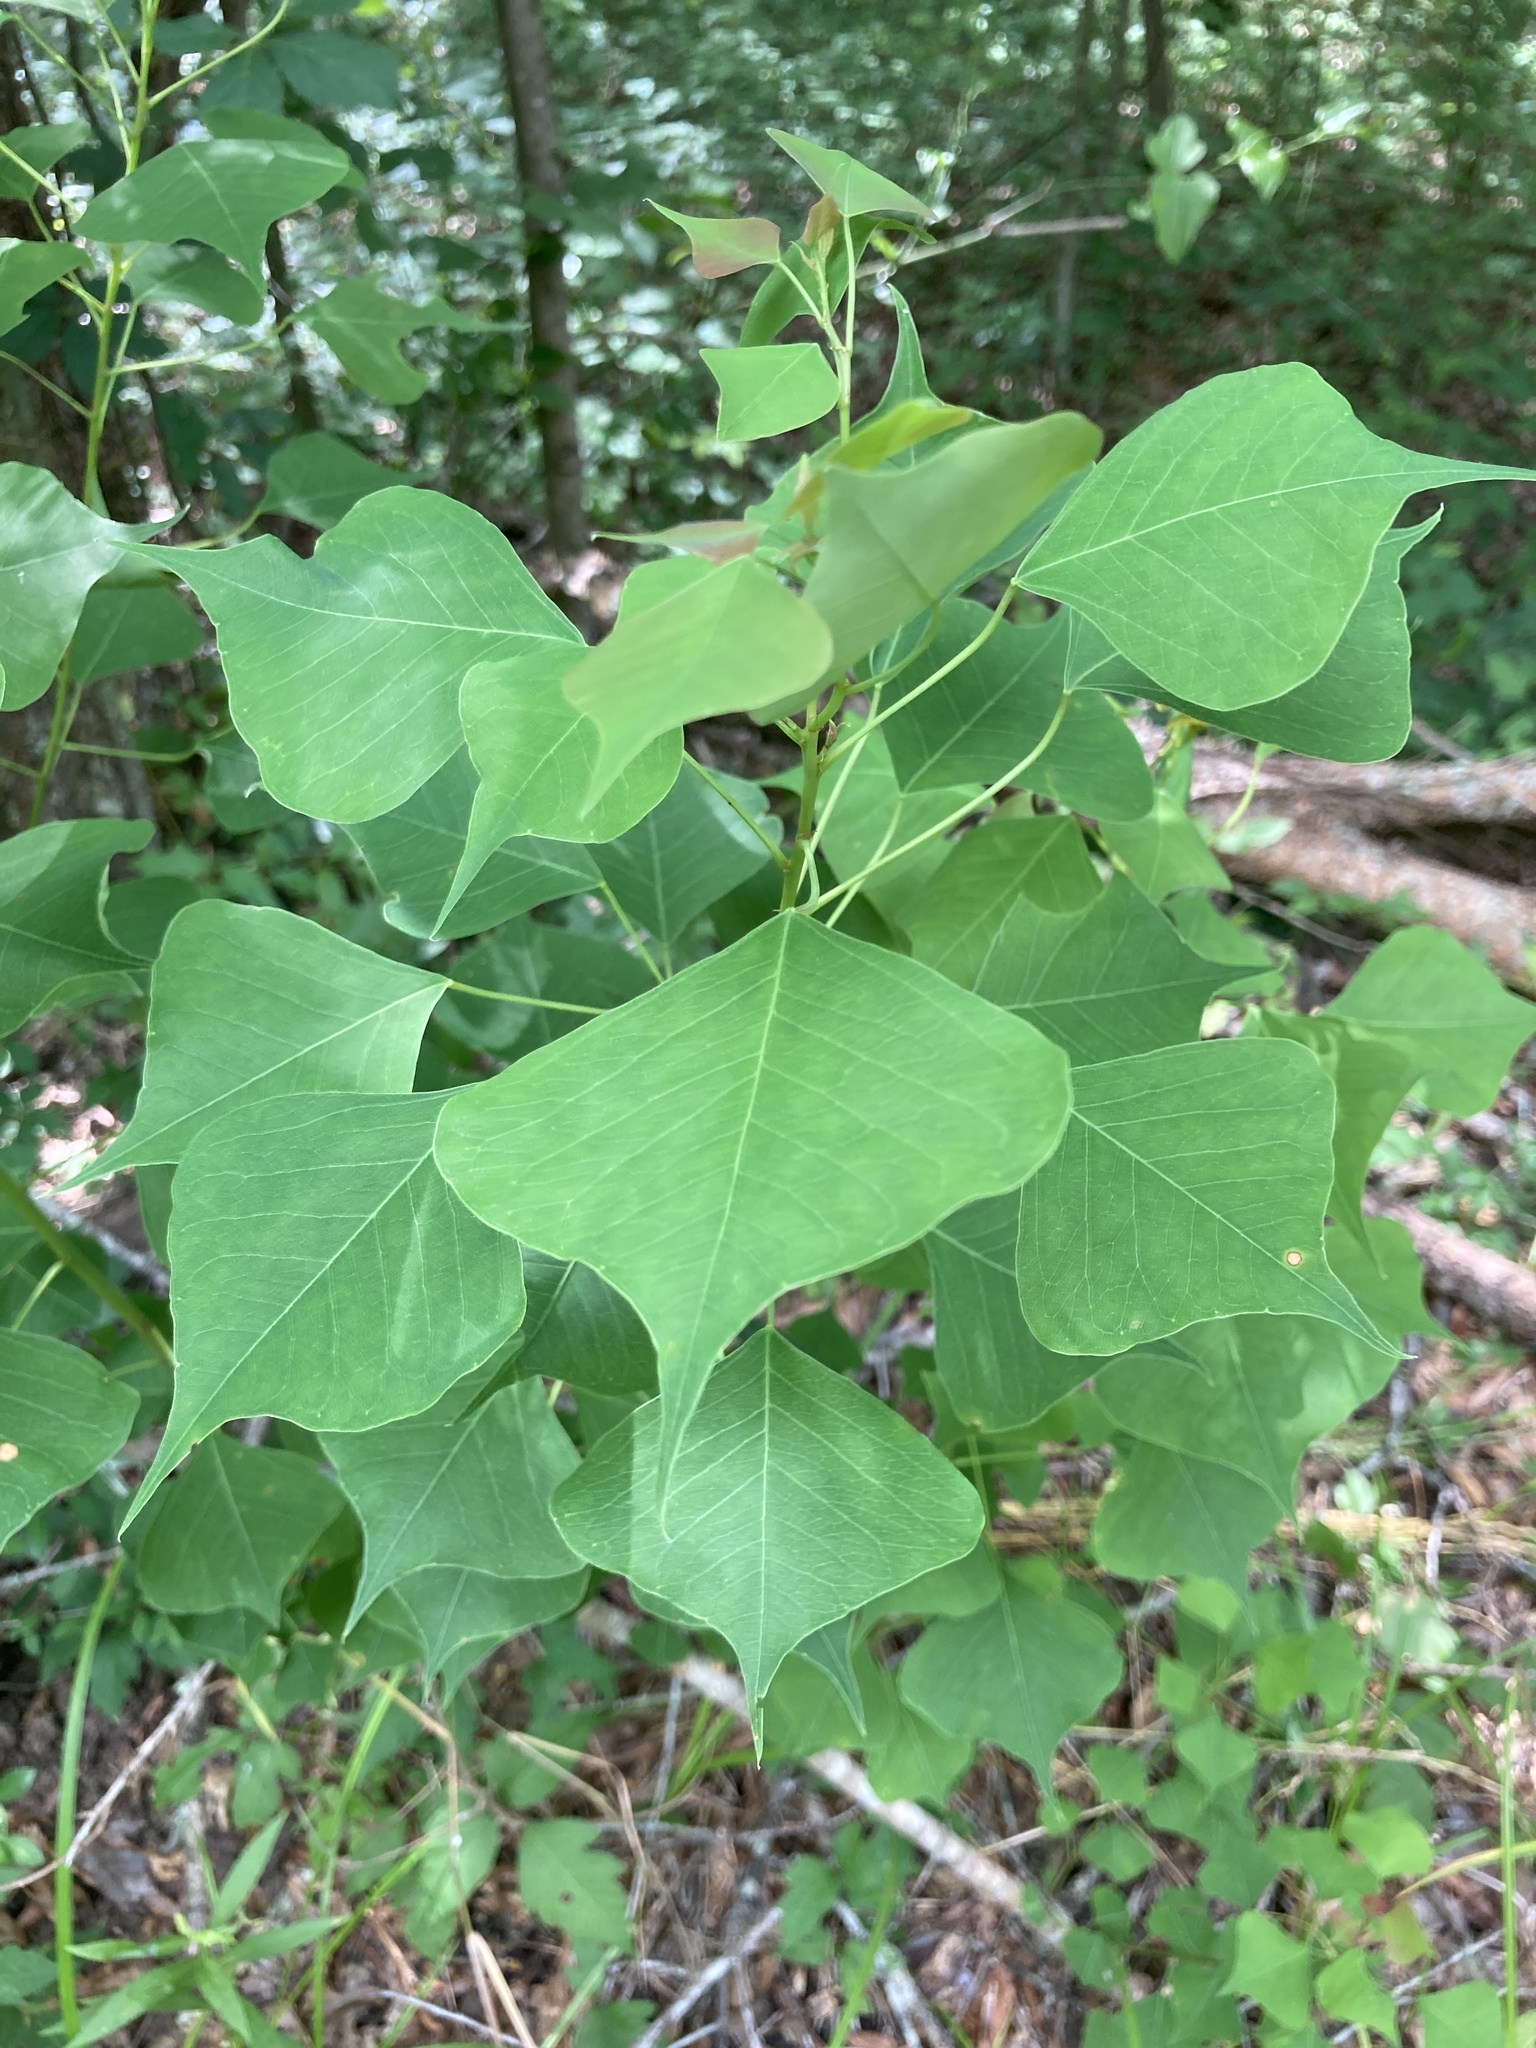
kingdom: Plantae
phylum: Tracheophyta
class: Magnoliopsida
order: Malpighiales
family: Euphorbiaceae
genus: Triadica
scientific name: Triadica sebifera
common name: Chinese tallow
